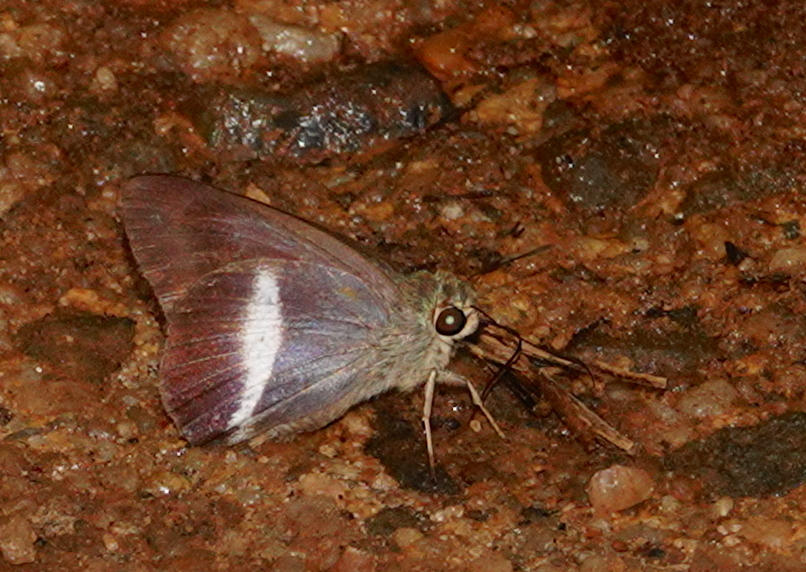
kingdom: Animalia
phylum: Arthropoda
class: Insecta
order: Lepidoptera
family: Hesperiidae
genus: Hasora
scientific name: Hasora taminatus
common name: White banded awl
